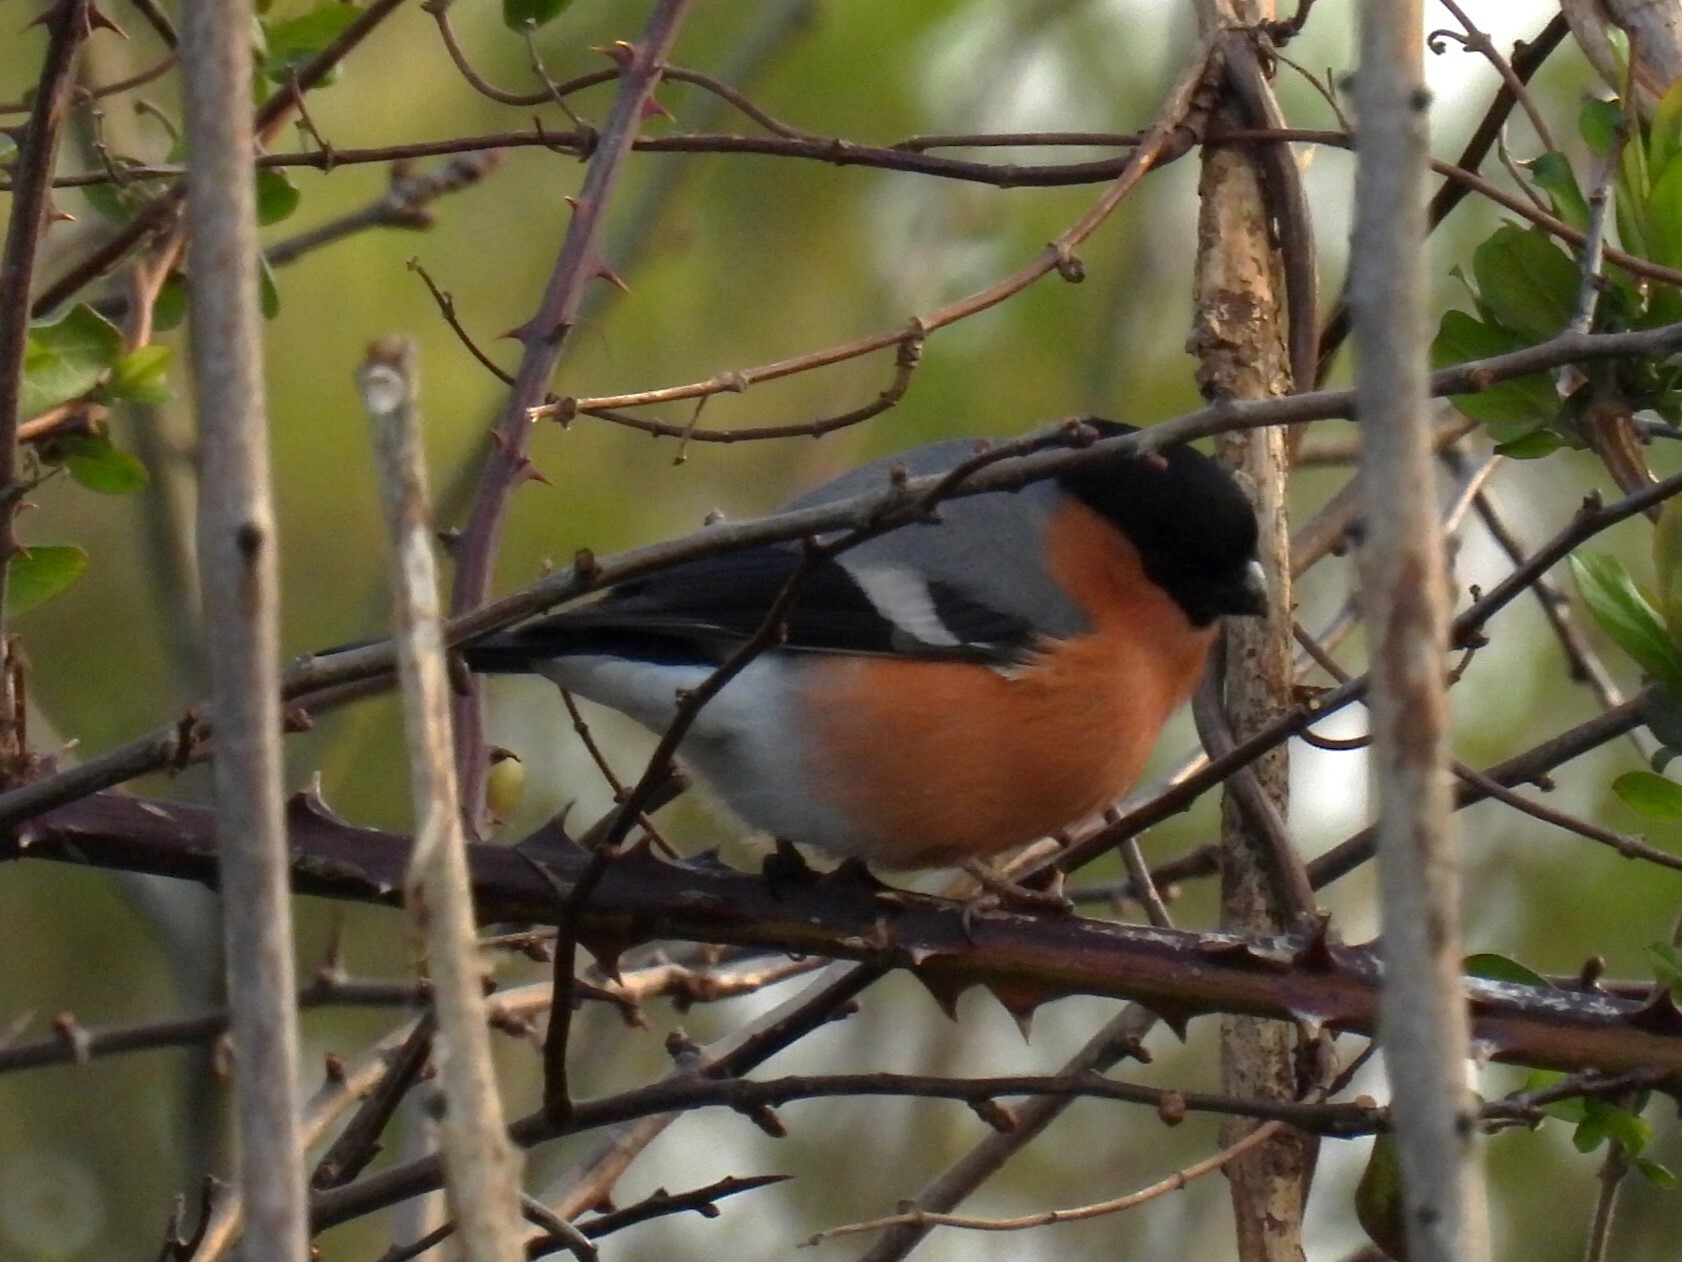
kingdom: Animalia
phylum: Chordata
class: Aves
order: Passeriformes
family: Fringillidae
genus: Pyrrhula
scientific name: Pyrrhula pyrrhula
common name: Eurasian bullfinch
